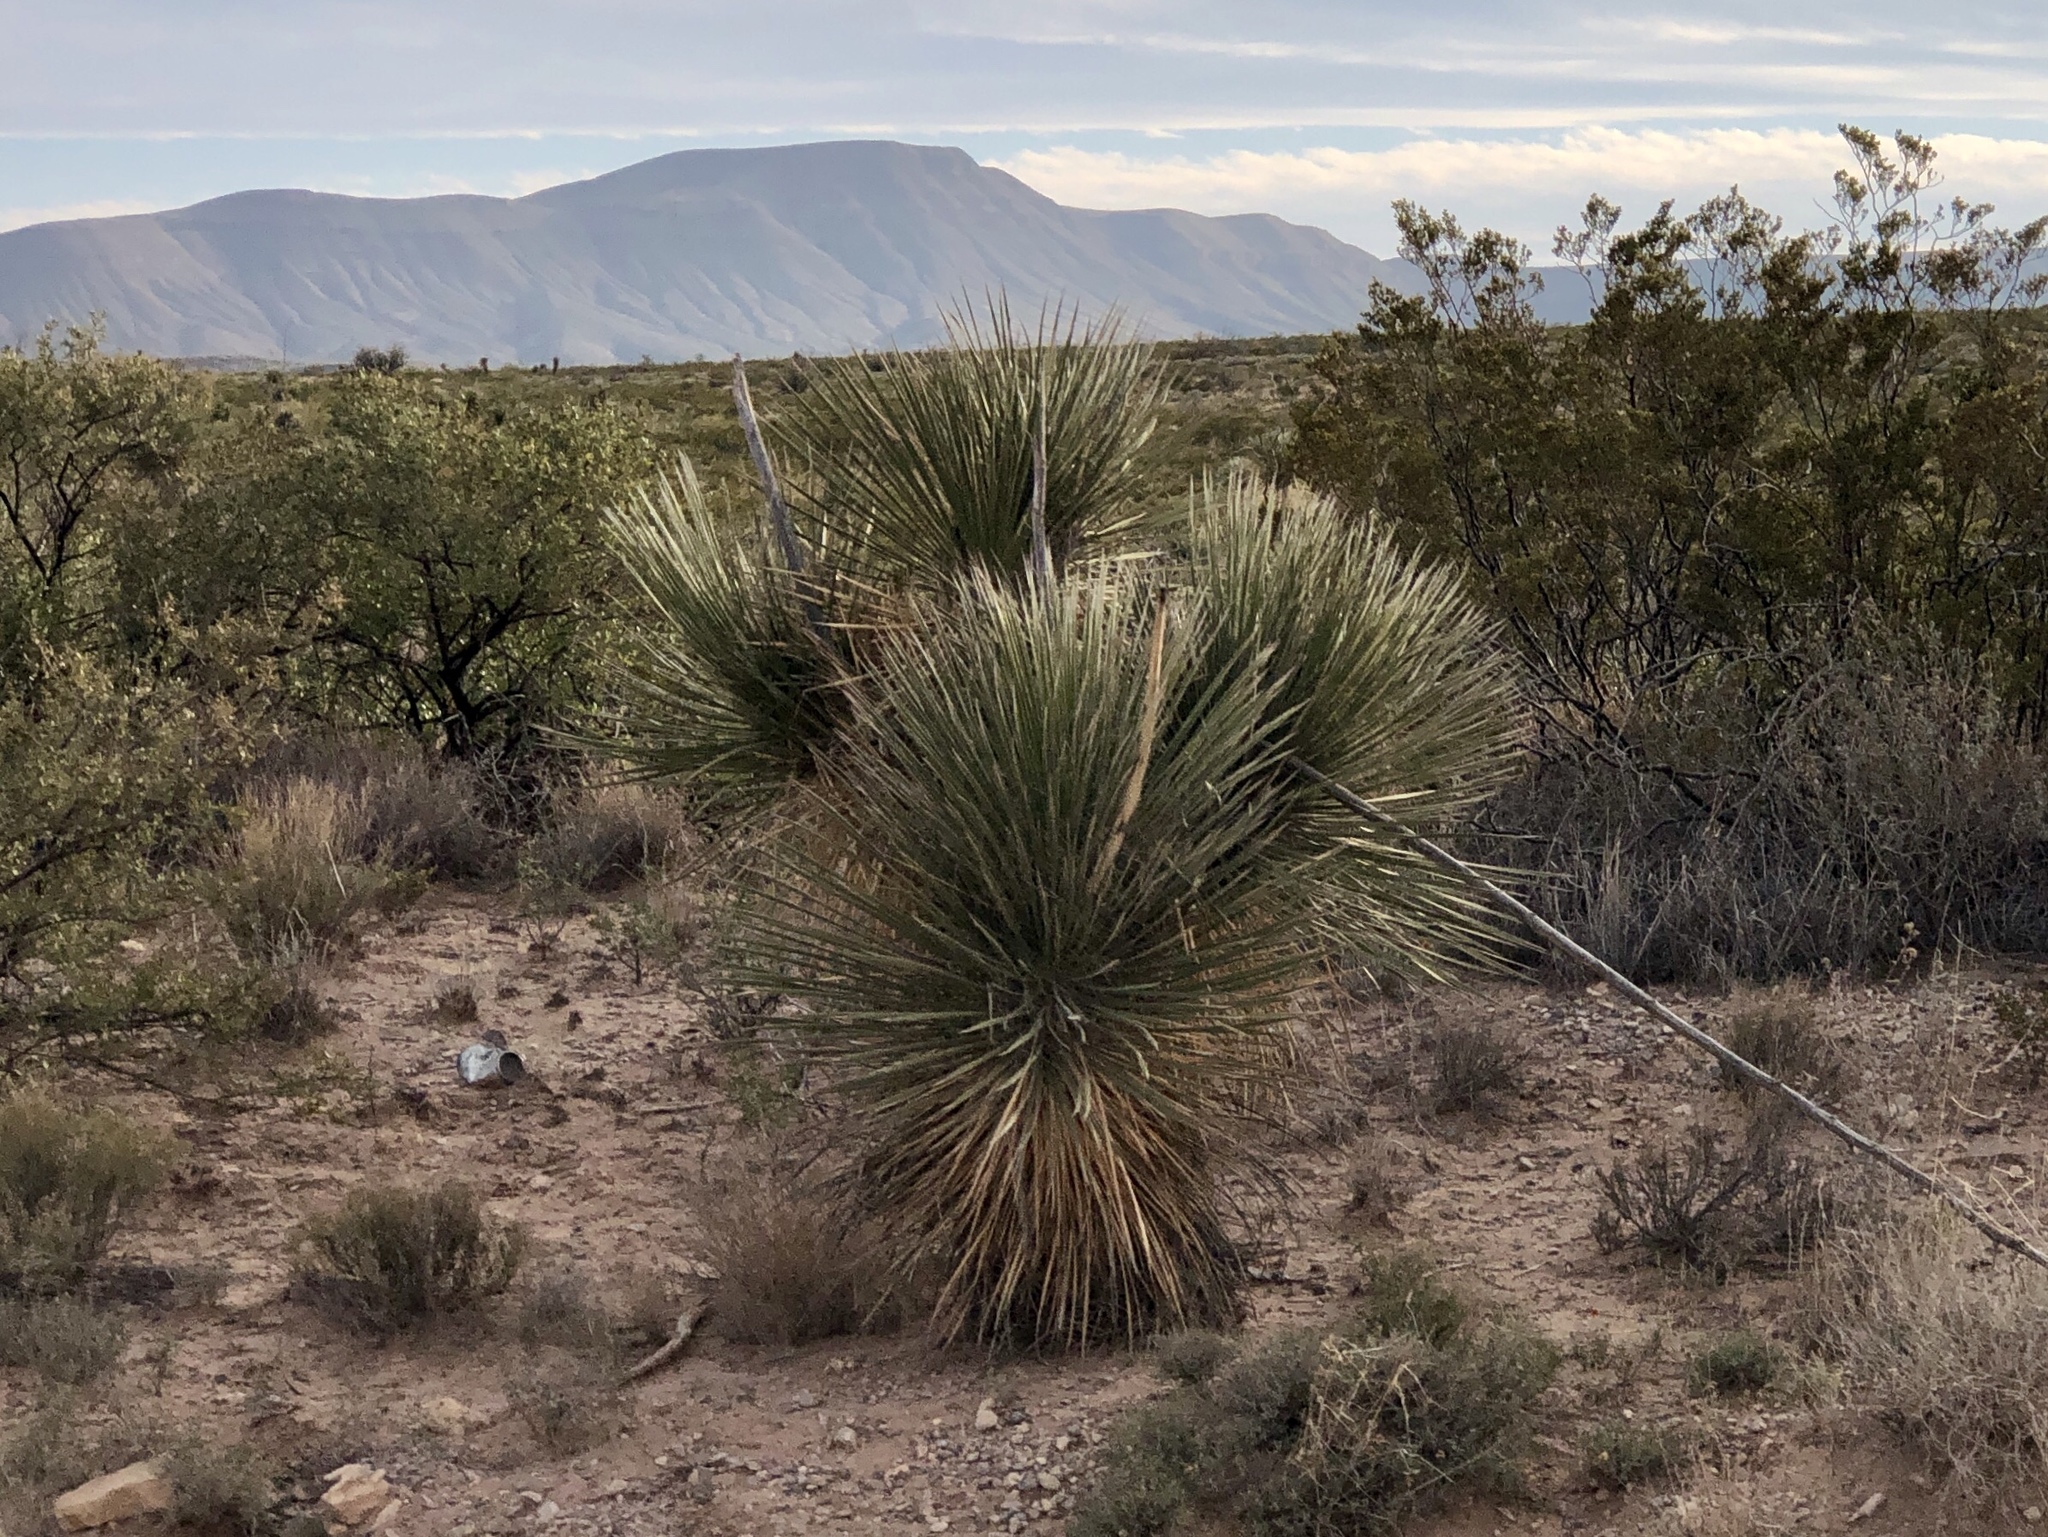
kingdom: Plantae
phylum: Tracheophyta
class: Liliopsida
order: Asparagales
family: Asparagaceae
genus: Yucca
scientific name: Yucca elata
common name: Palmella
